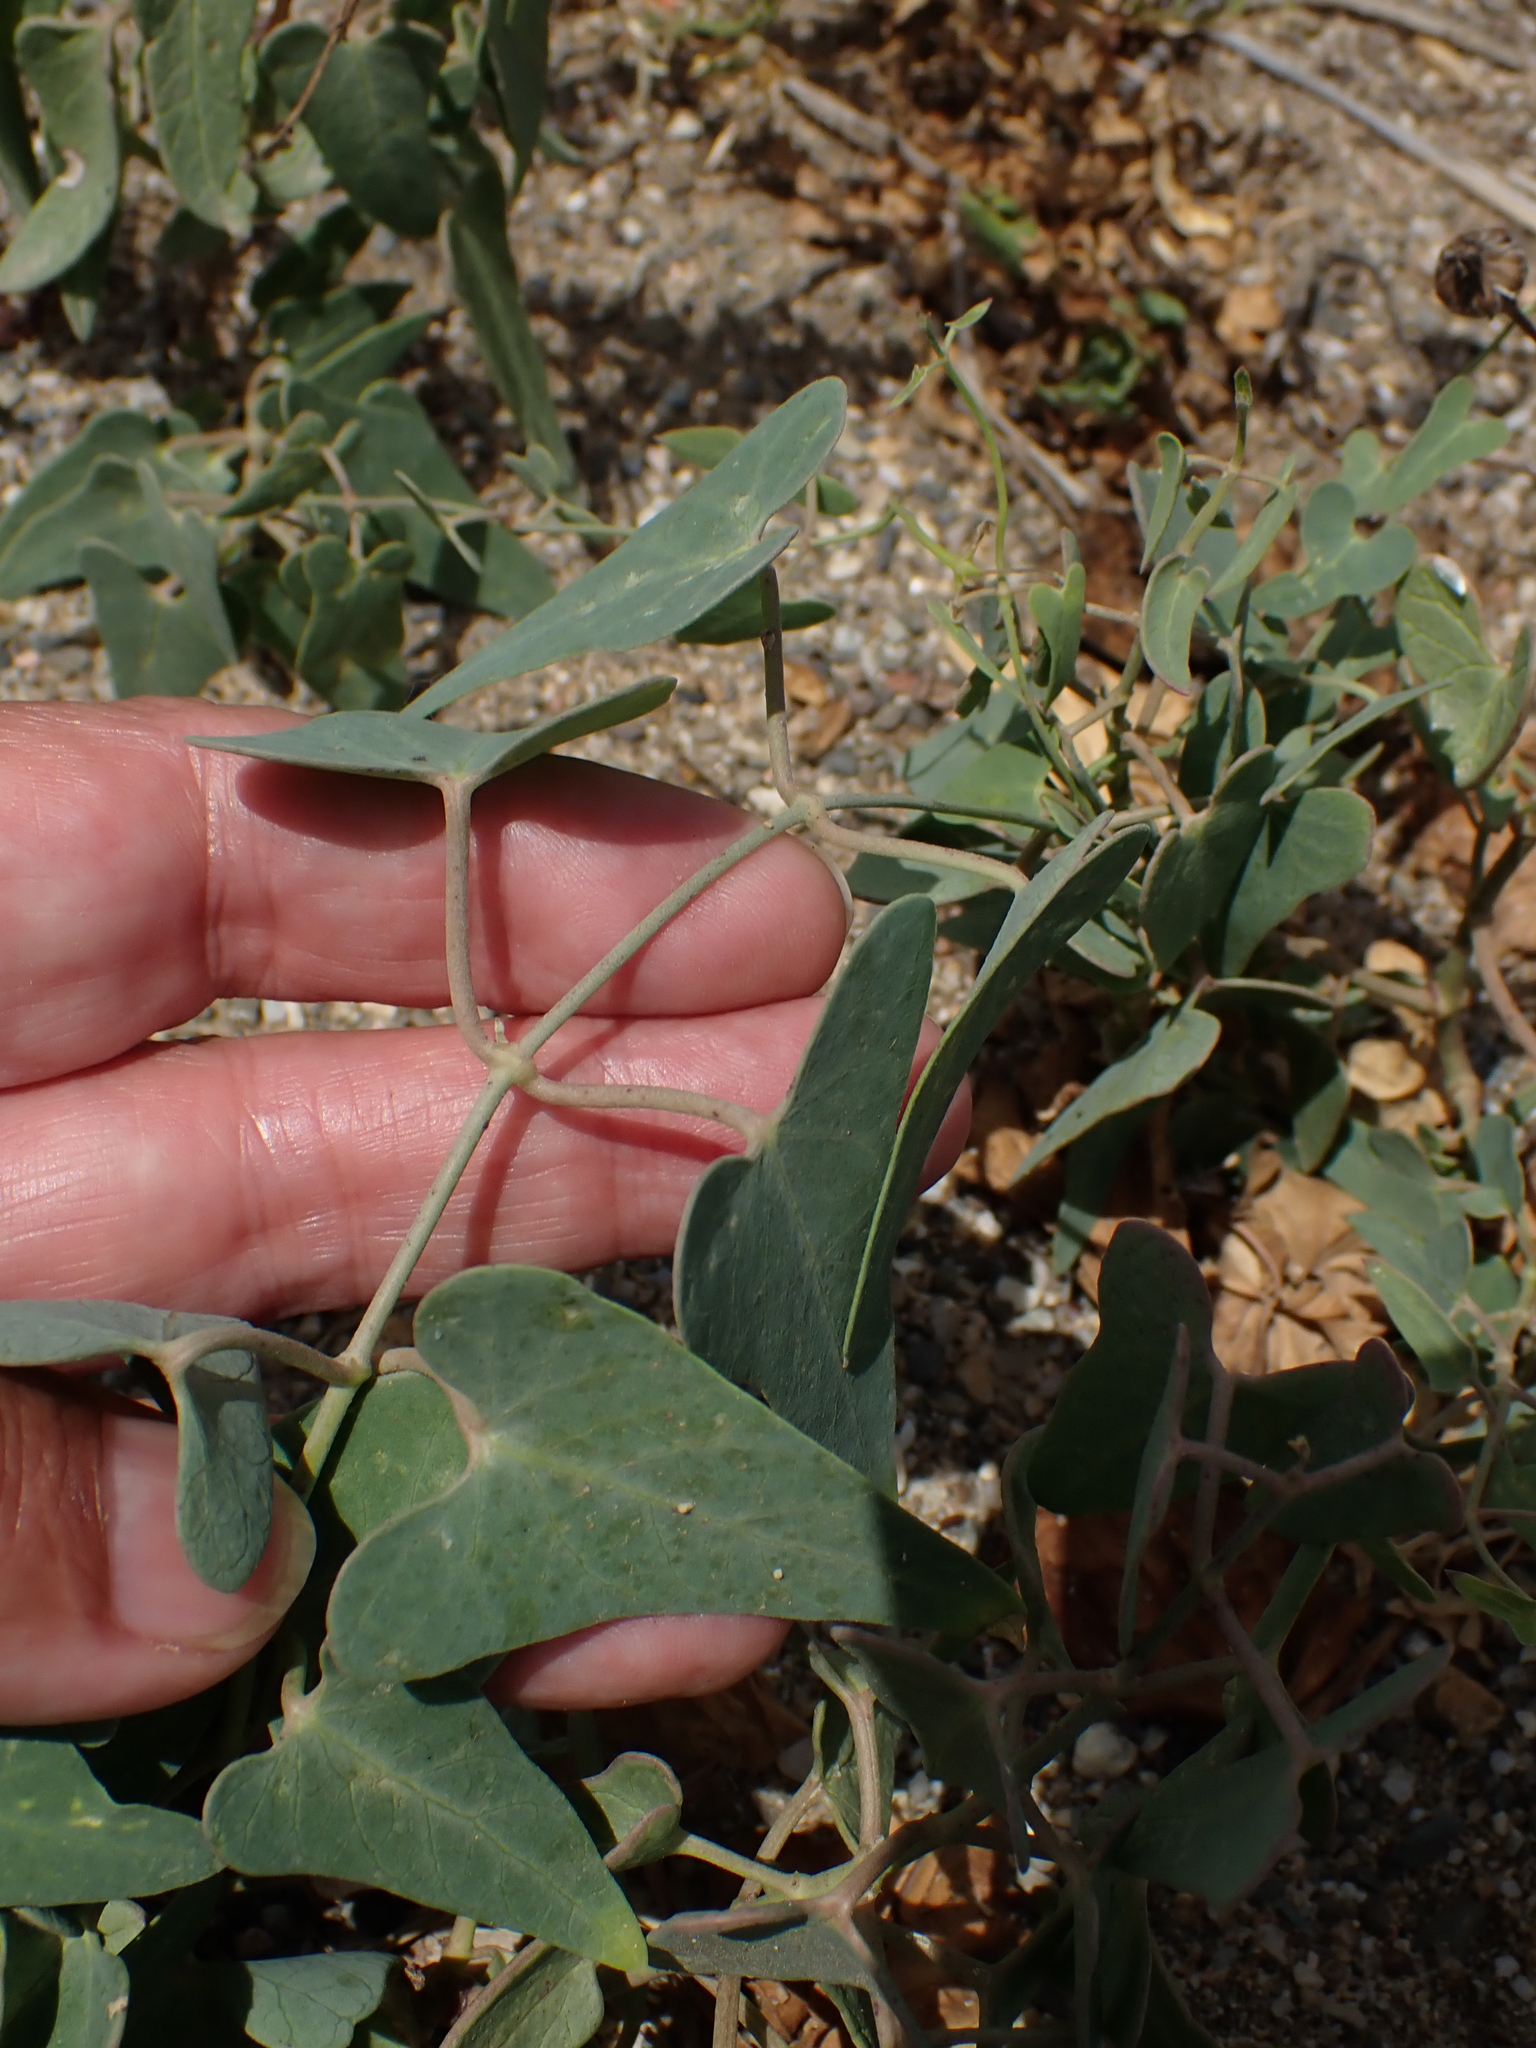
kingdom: Plantae
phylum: Tracheophyta
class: Magnoliopsida
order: Gentianales
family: Apocynaceae
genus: Cynanchum
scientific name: Cynanchum acutum
